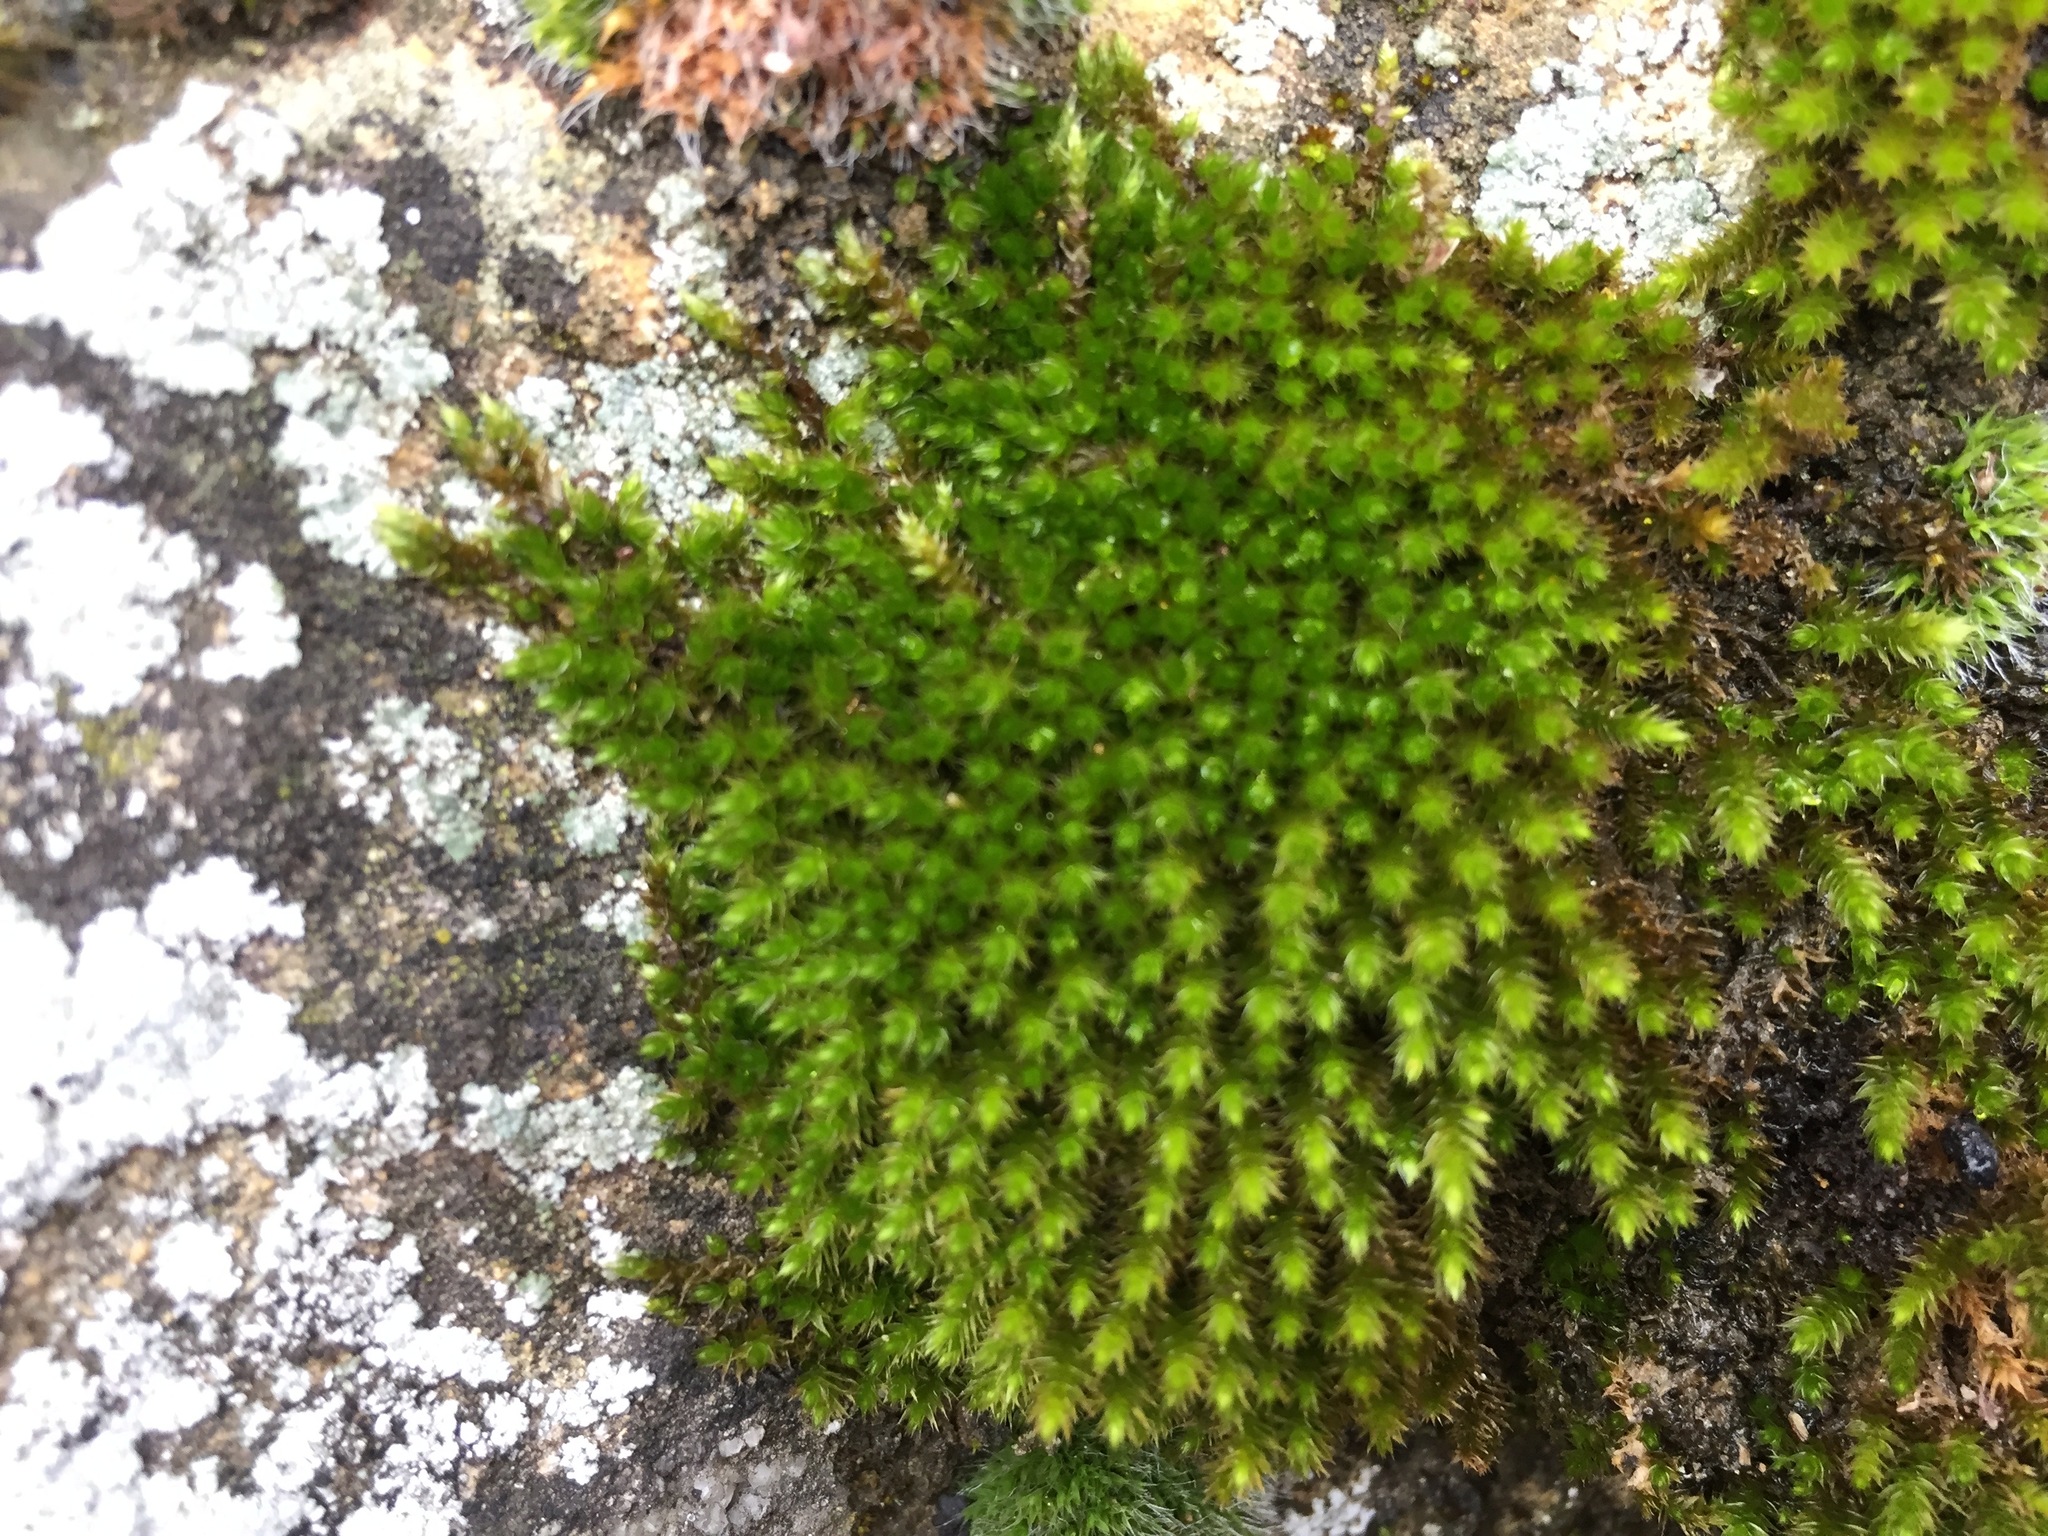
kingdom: Plantae
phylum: Bryophyta
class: Bryopsida
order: Hypnales
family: Leucodontaceae
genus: Leucodon
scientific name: Leucodon sciuroides
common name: Squirrel-tail moss
